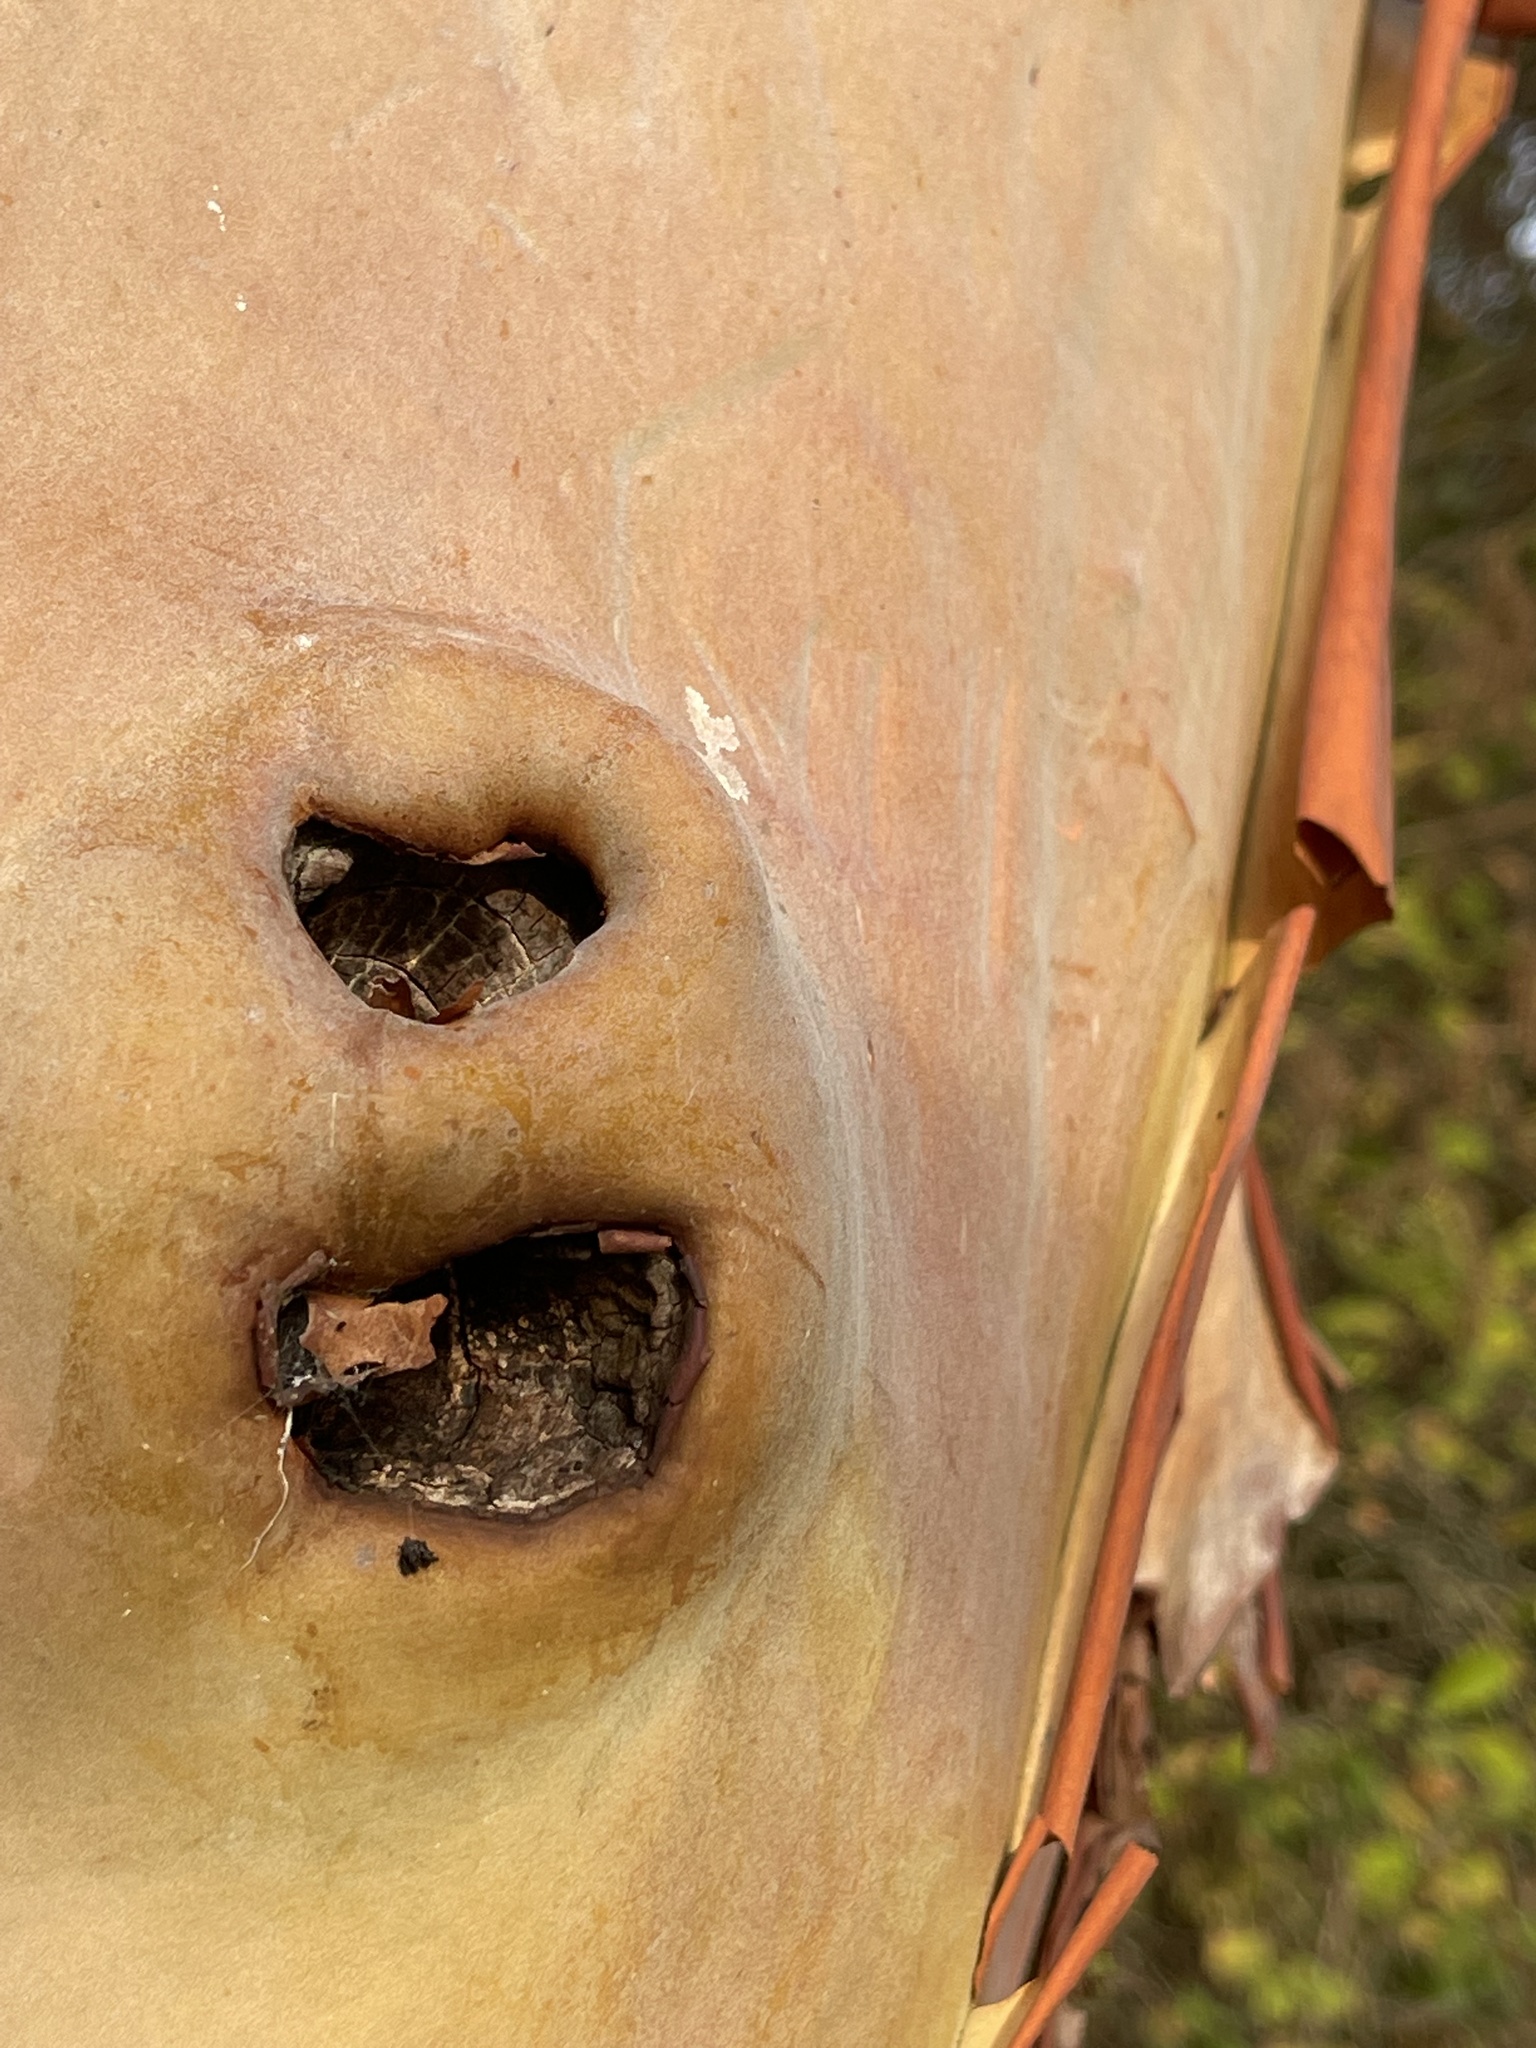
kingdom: Plantae
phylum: Tracheophyta
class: Magnoliopsida
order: Ericales
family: Ericaceae
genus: Arbutus
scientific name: Arbutus menziesii
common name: Pacific madrone
